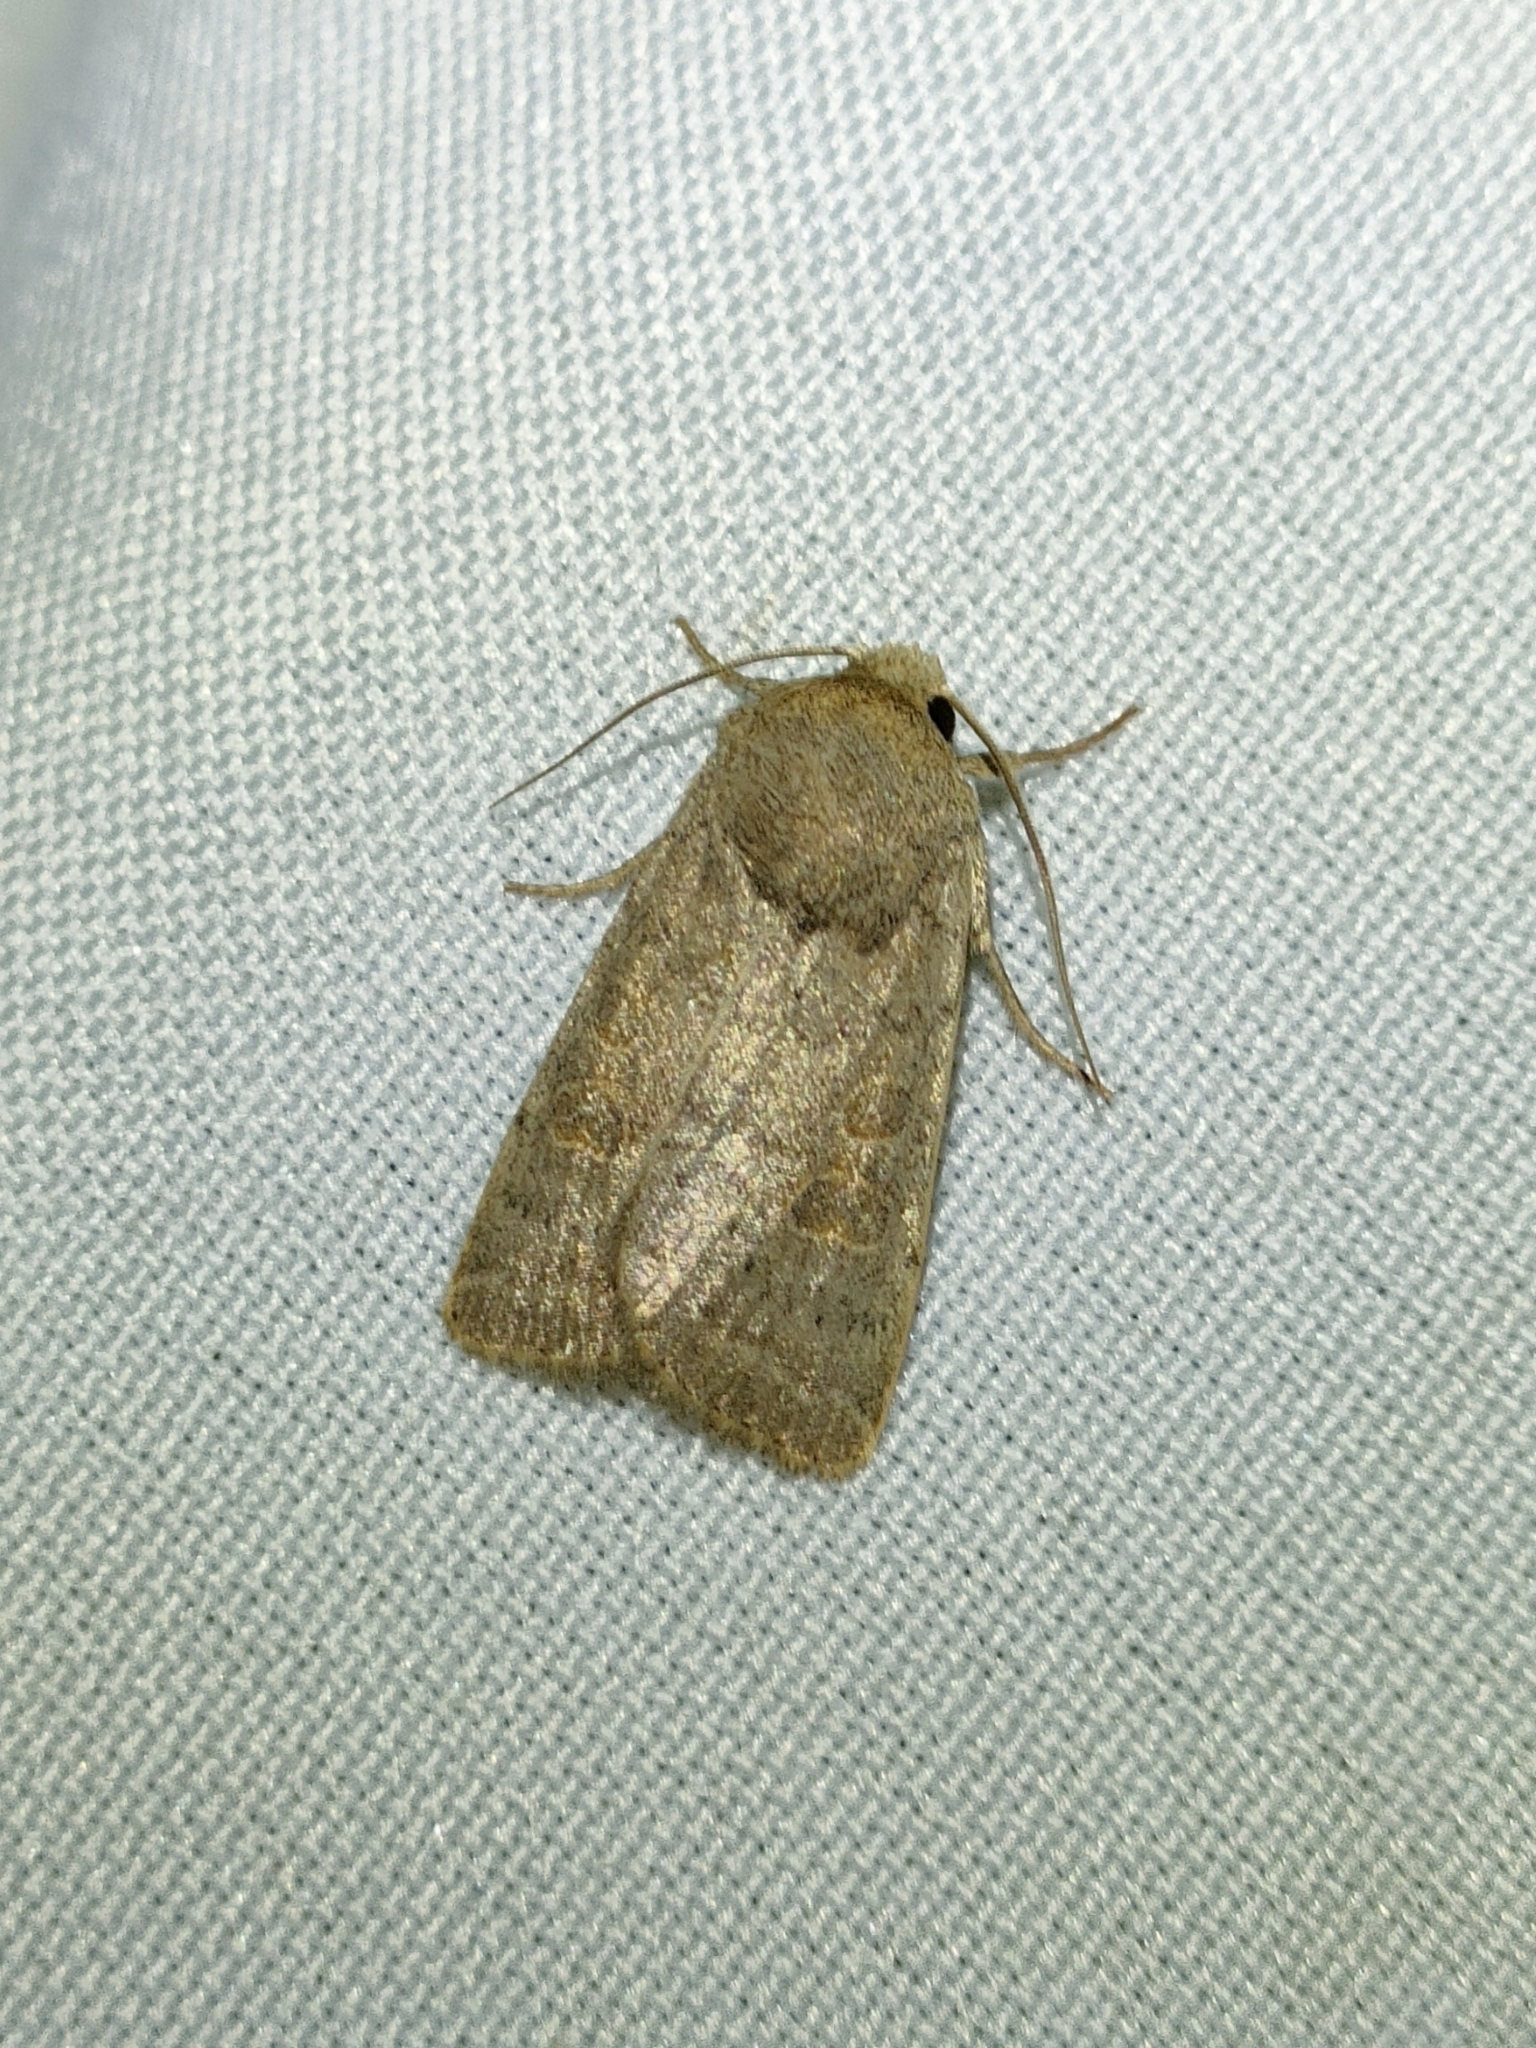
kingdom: Animalia
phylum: Arthropoda
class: Insecta
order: Lepidoptera
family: Noctuidae
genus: Hoplodrina
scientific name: Hoplodrina ambigua
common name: Vine's rustic
